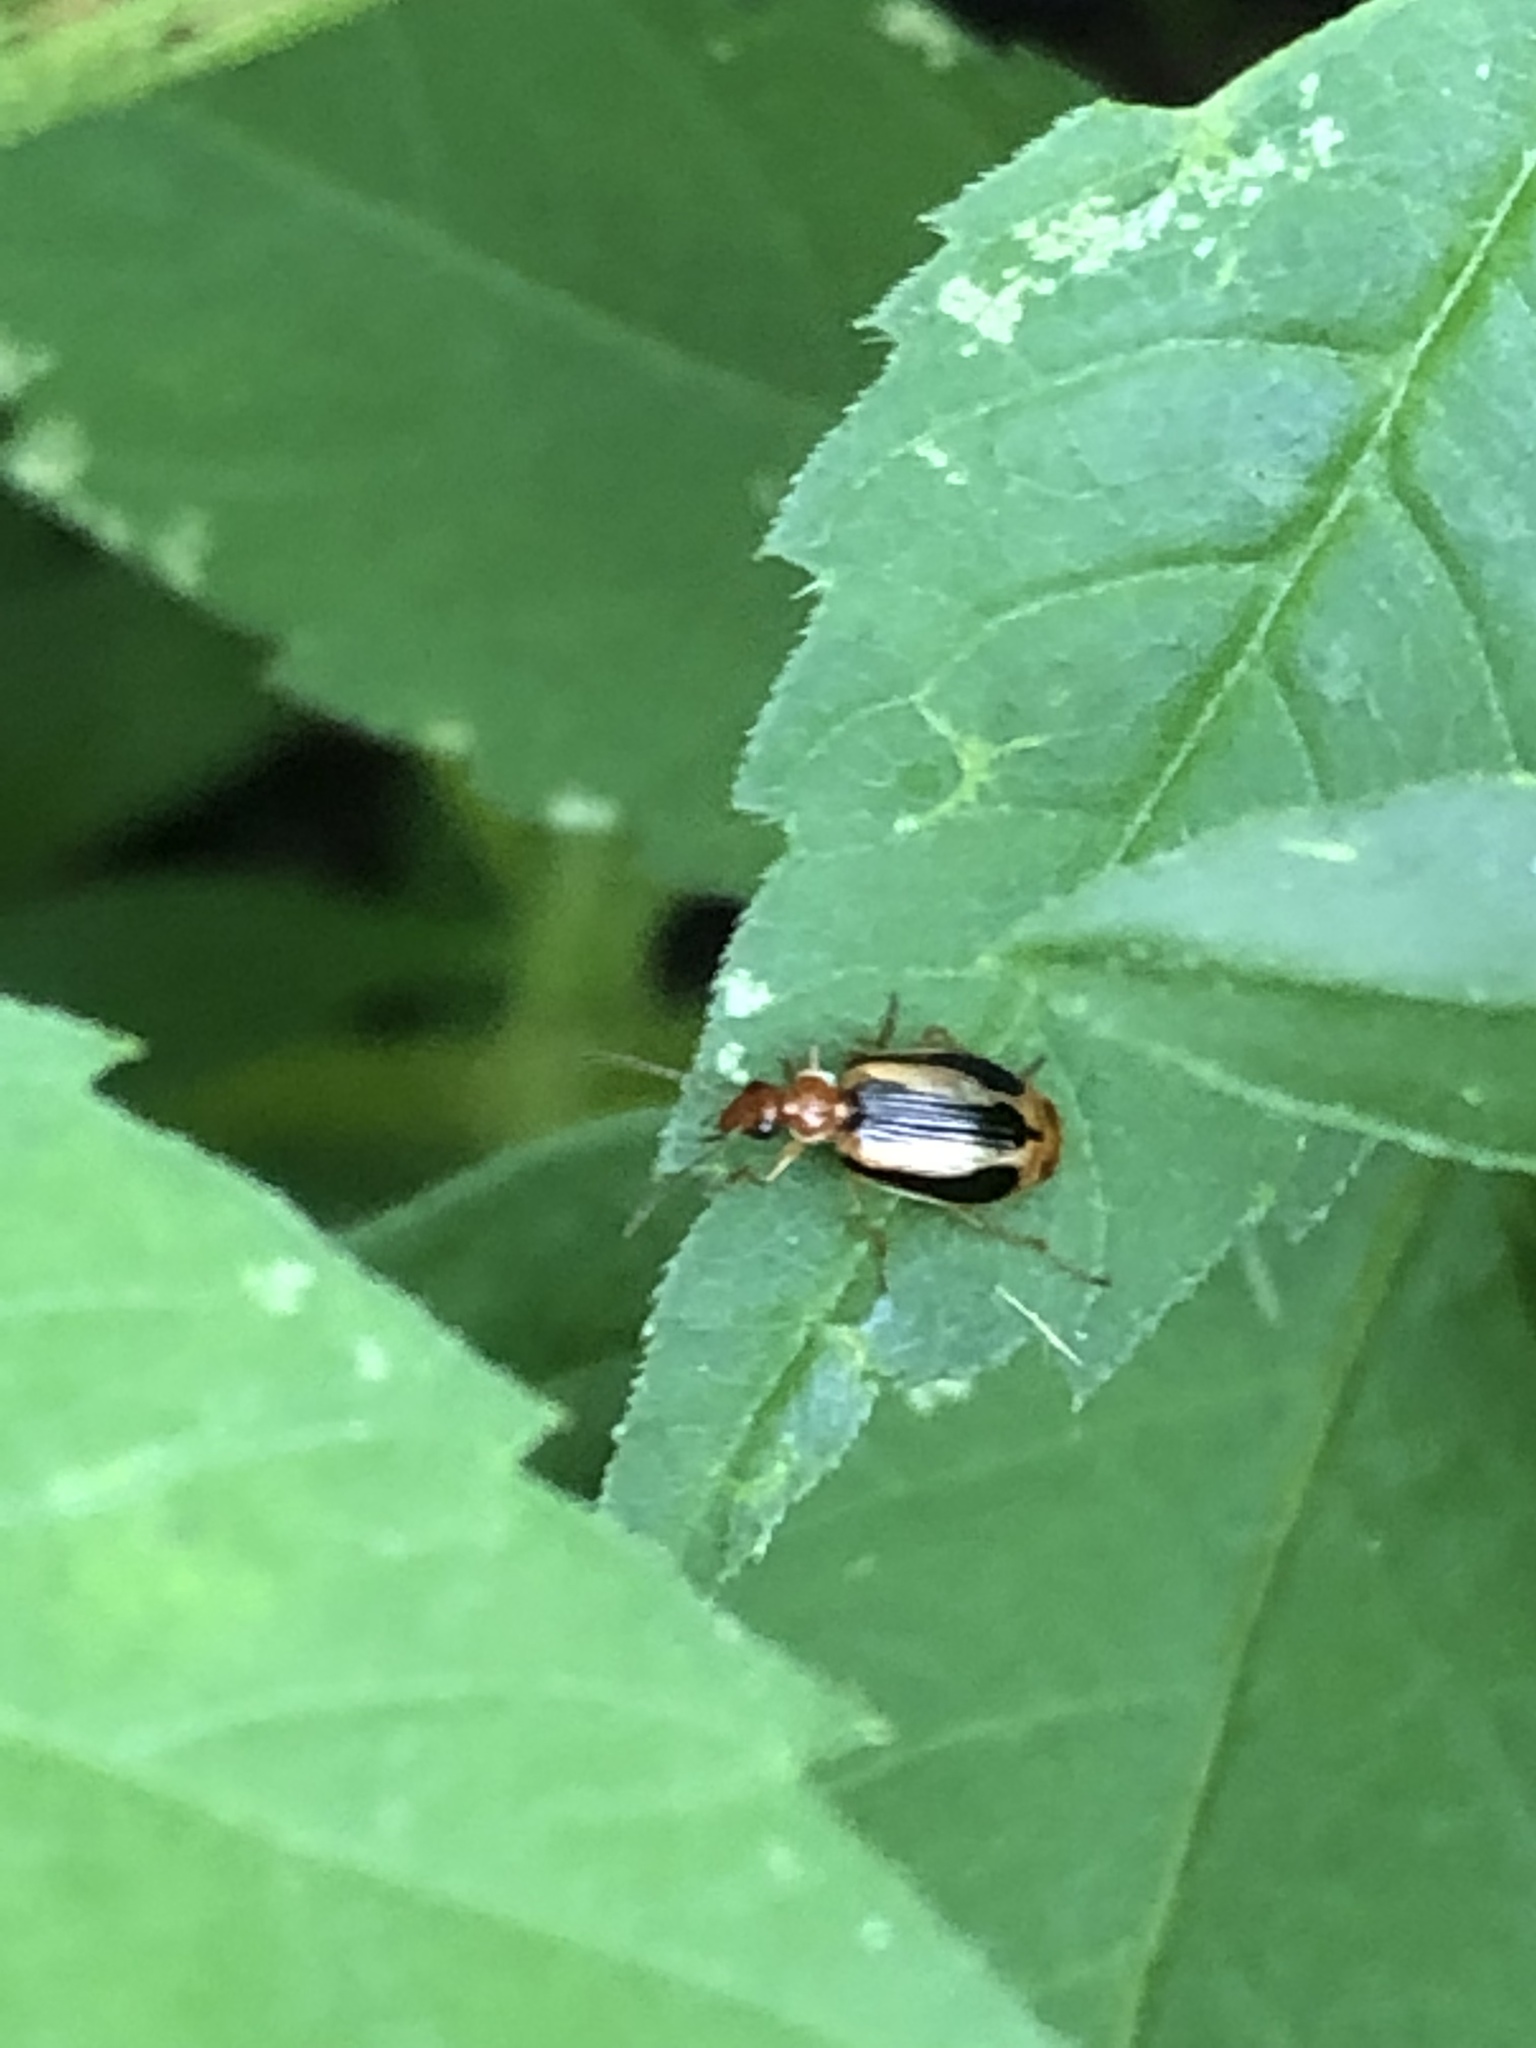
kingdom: Animalia
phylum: Arthropoda
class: Insecta
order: Coleoptera
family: Carabidae
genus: Lebia
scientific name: Lebia solea
